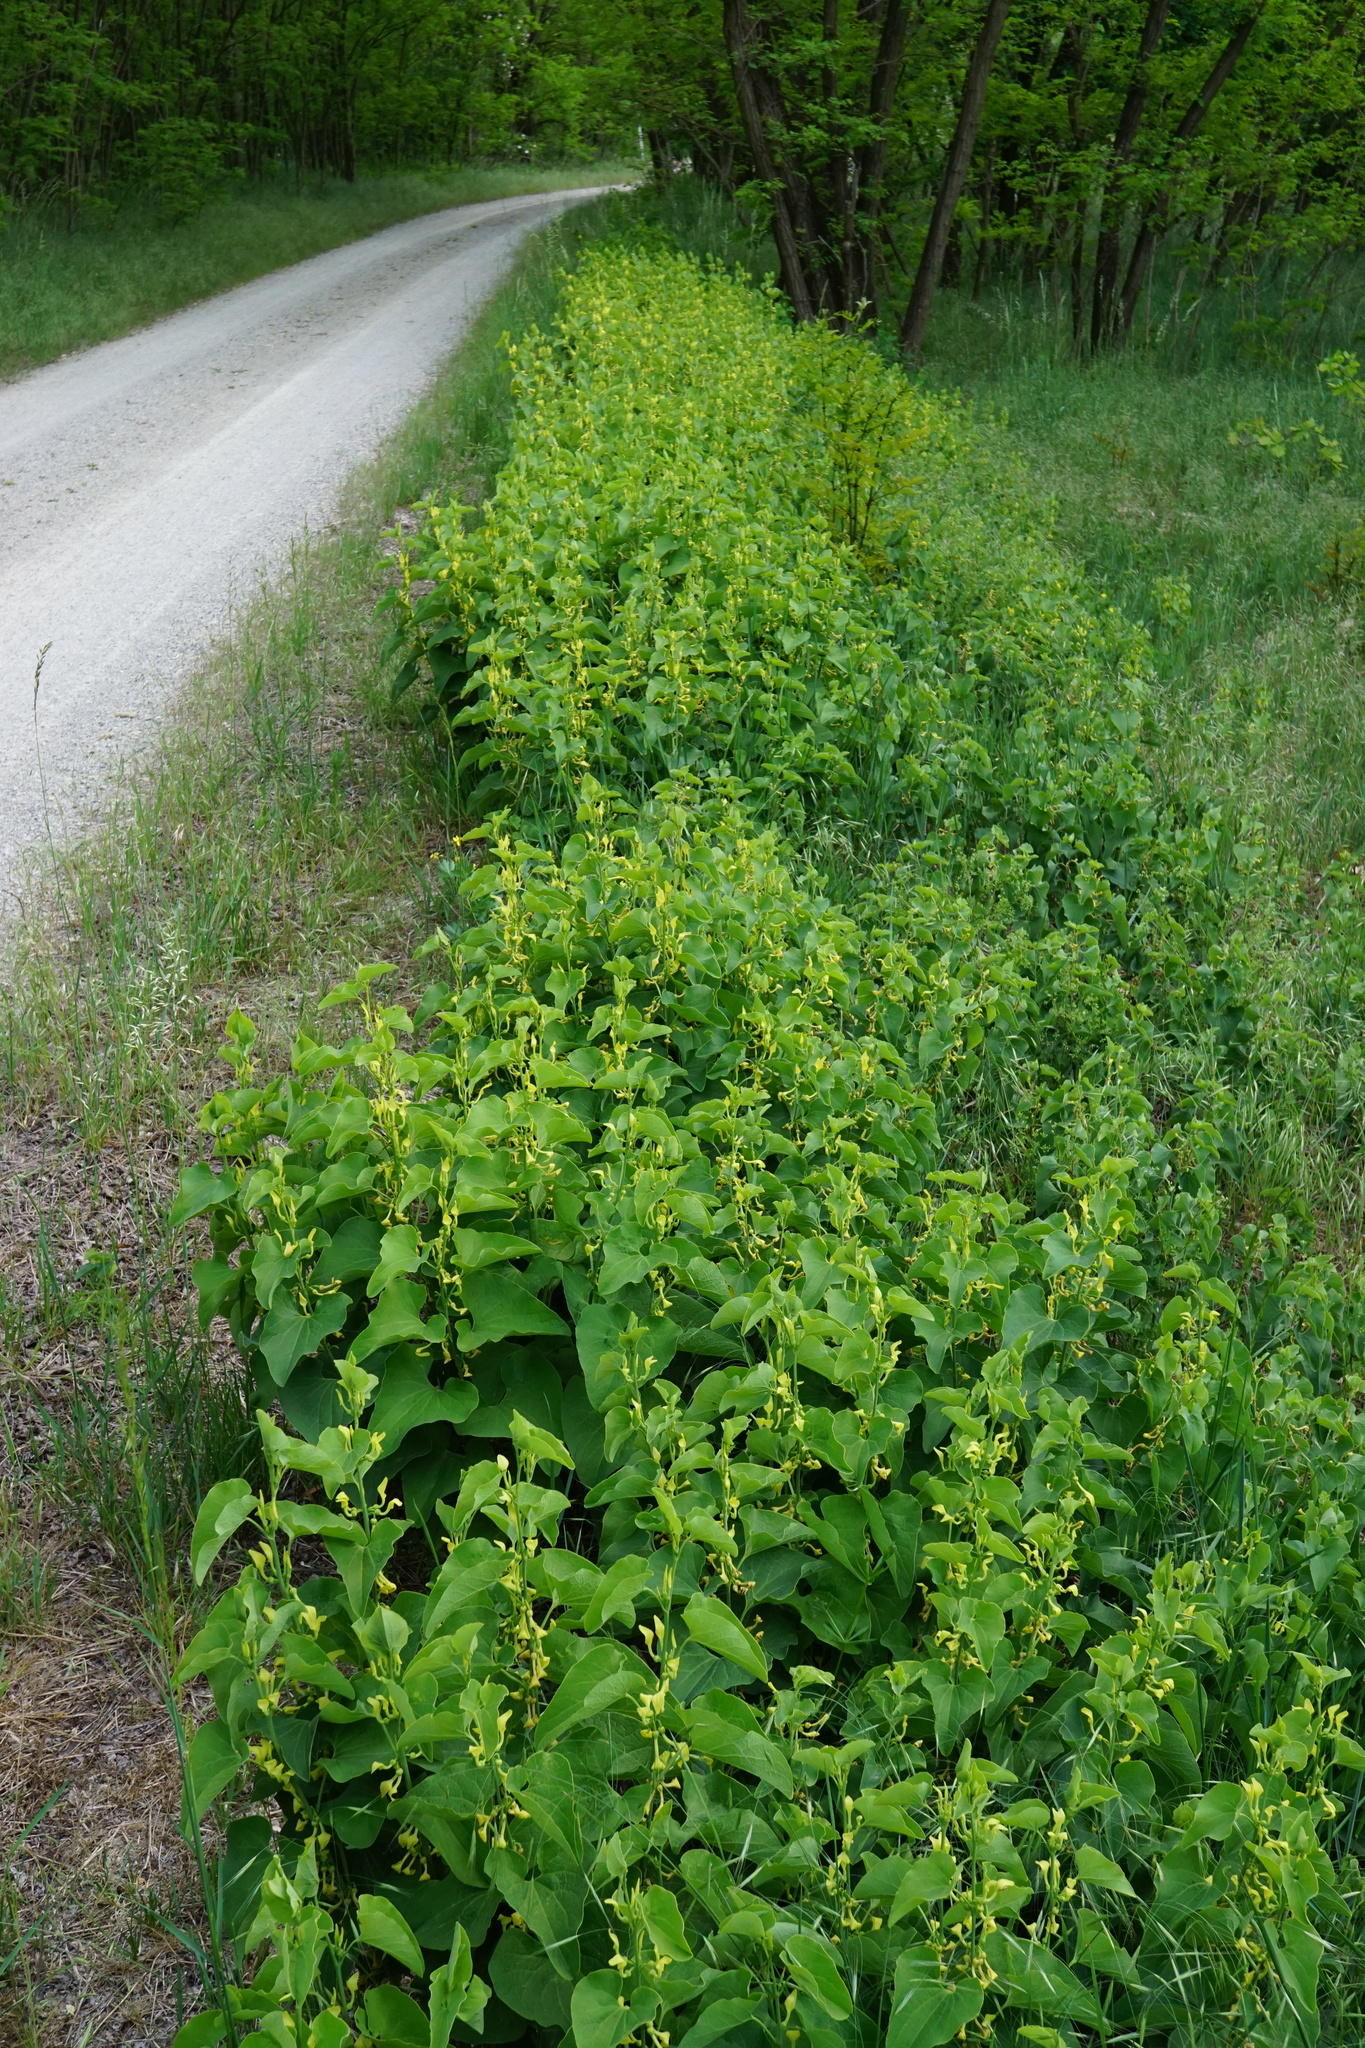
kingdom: Plantae
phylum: Tracheophyta
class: Magnoliopsida
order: Piperales
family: Aristolochiaceae
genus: Aristolochia
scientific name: Aristolochia clematitis
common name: Birthwort
